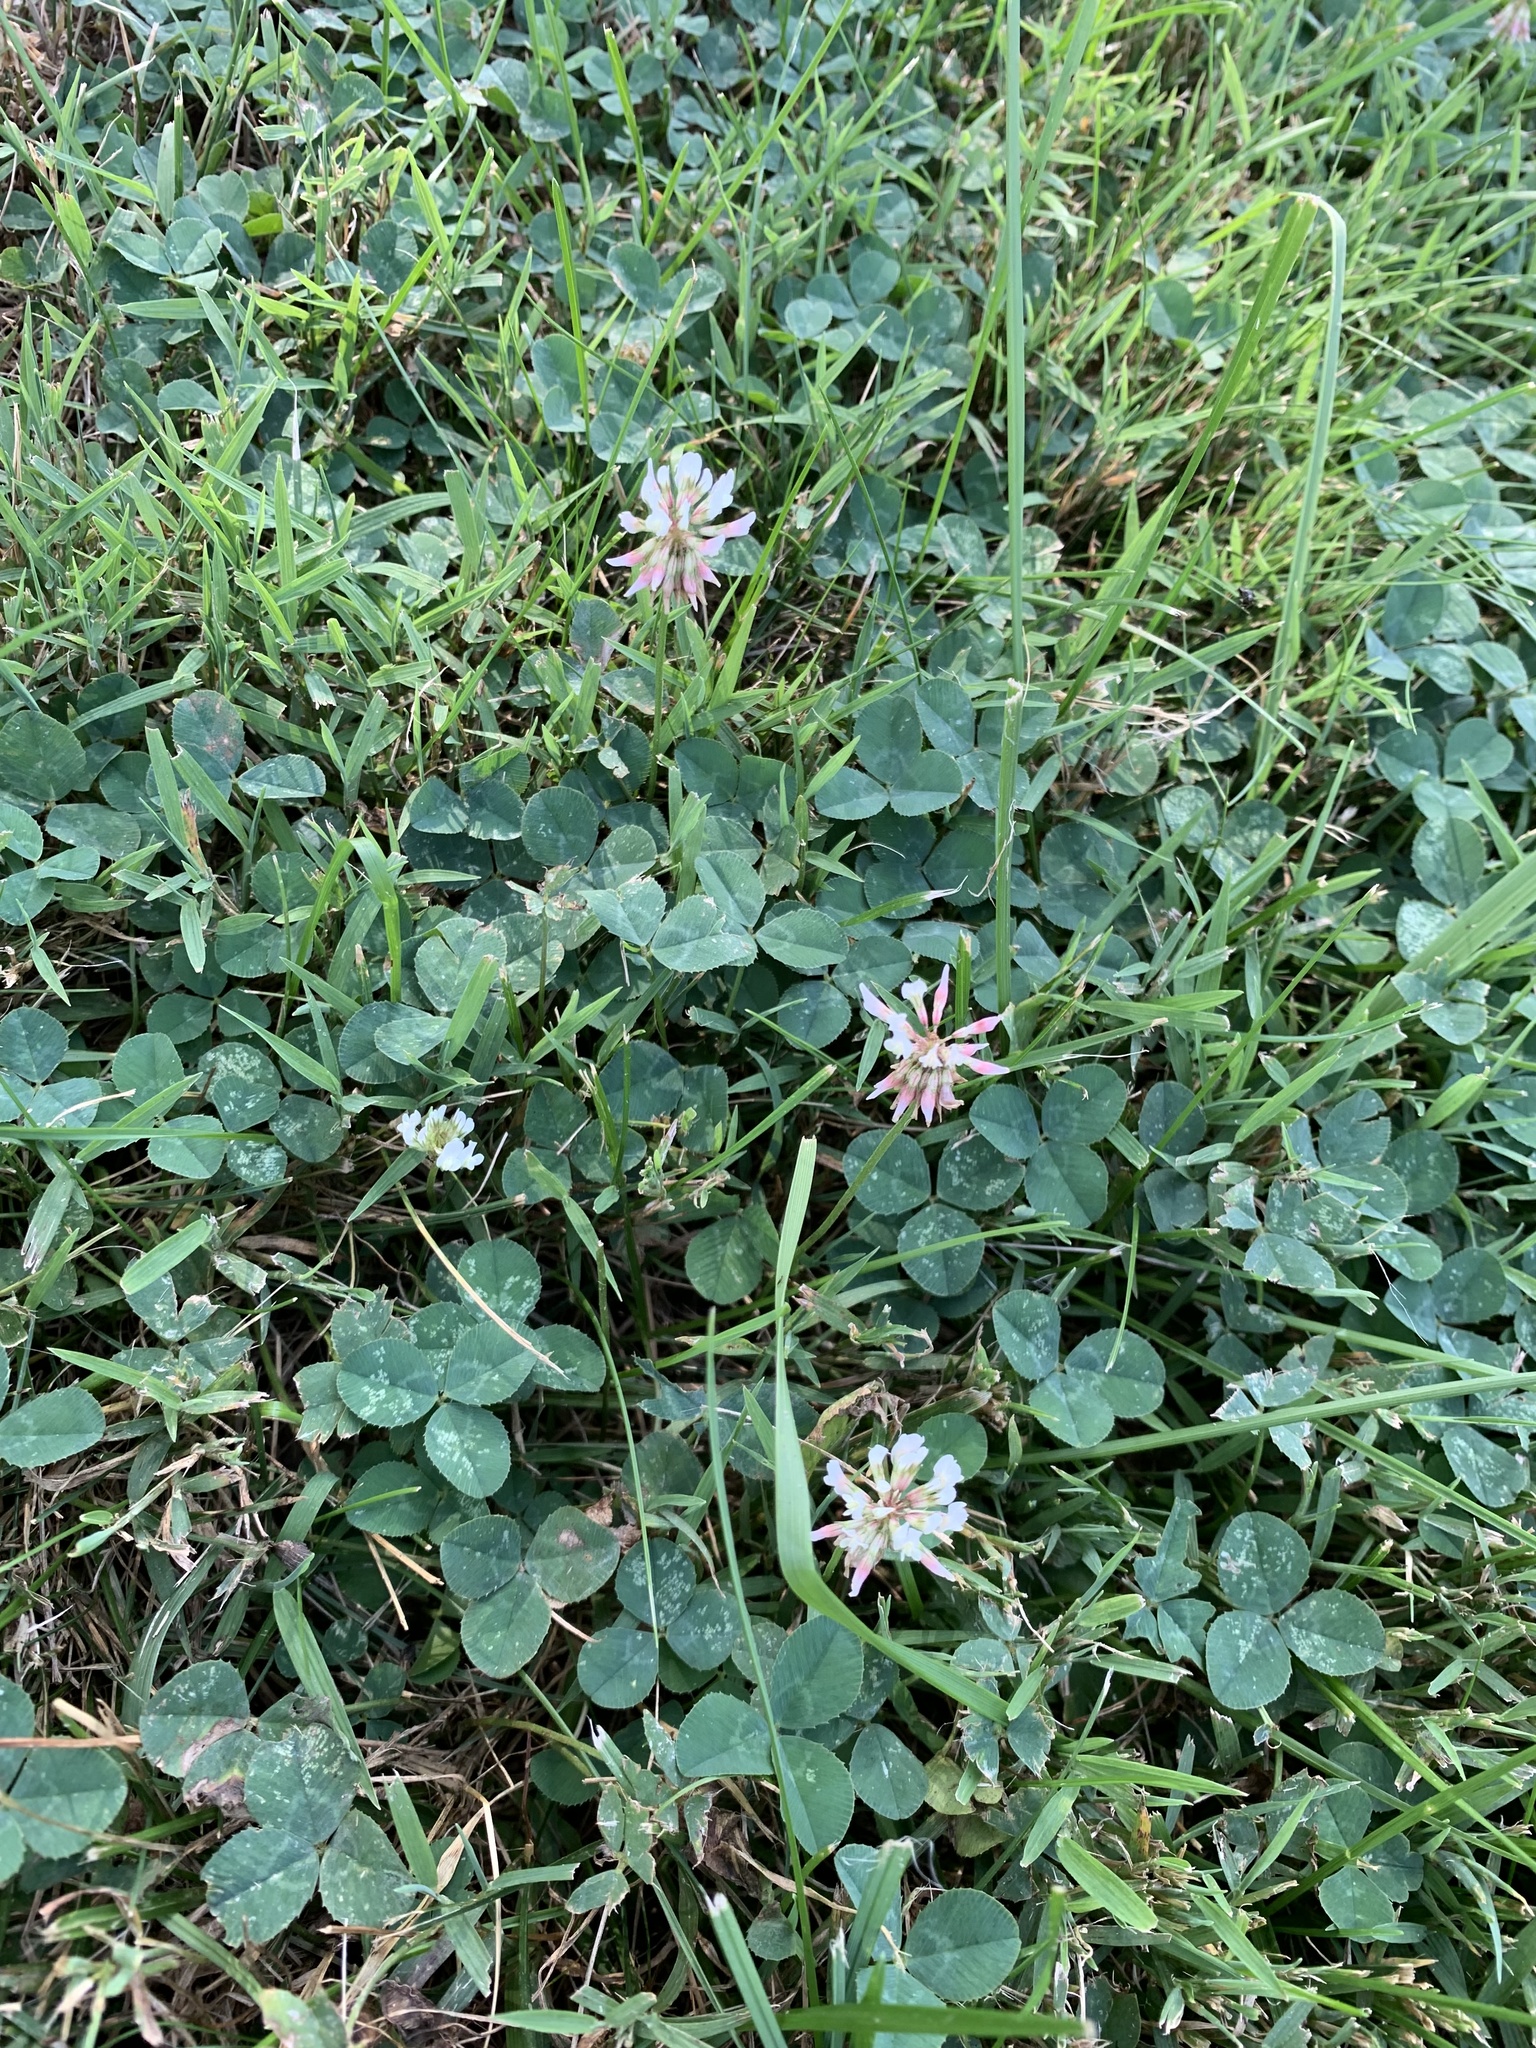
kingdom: Plantae
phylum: Tracheophyta
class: Magnoliopsida
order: Fabales
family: Fabaceae
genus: Trifolium
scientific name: Trifolium repens
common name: White clover
